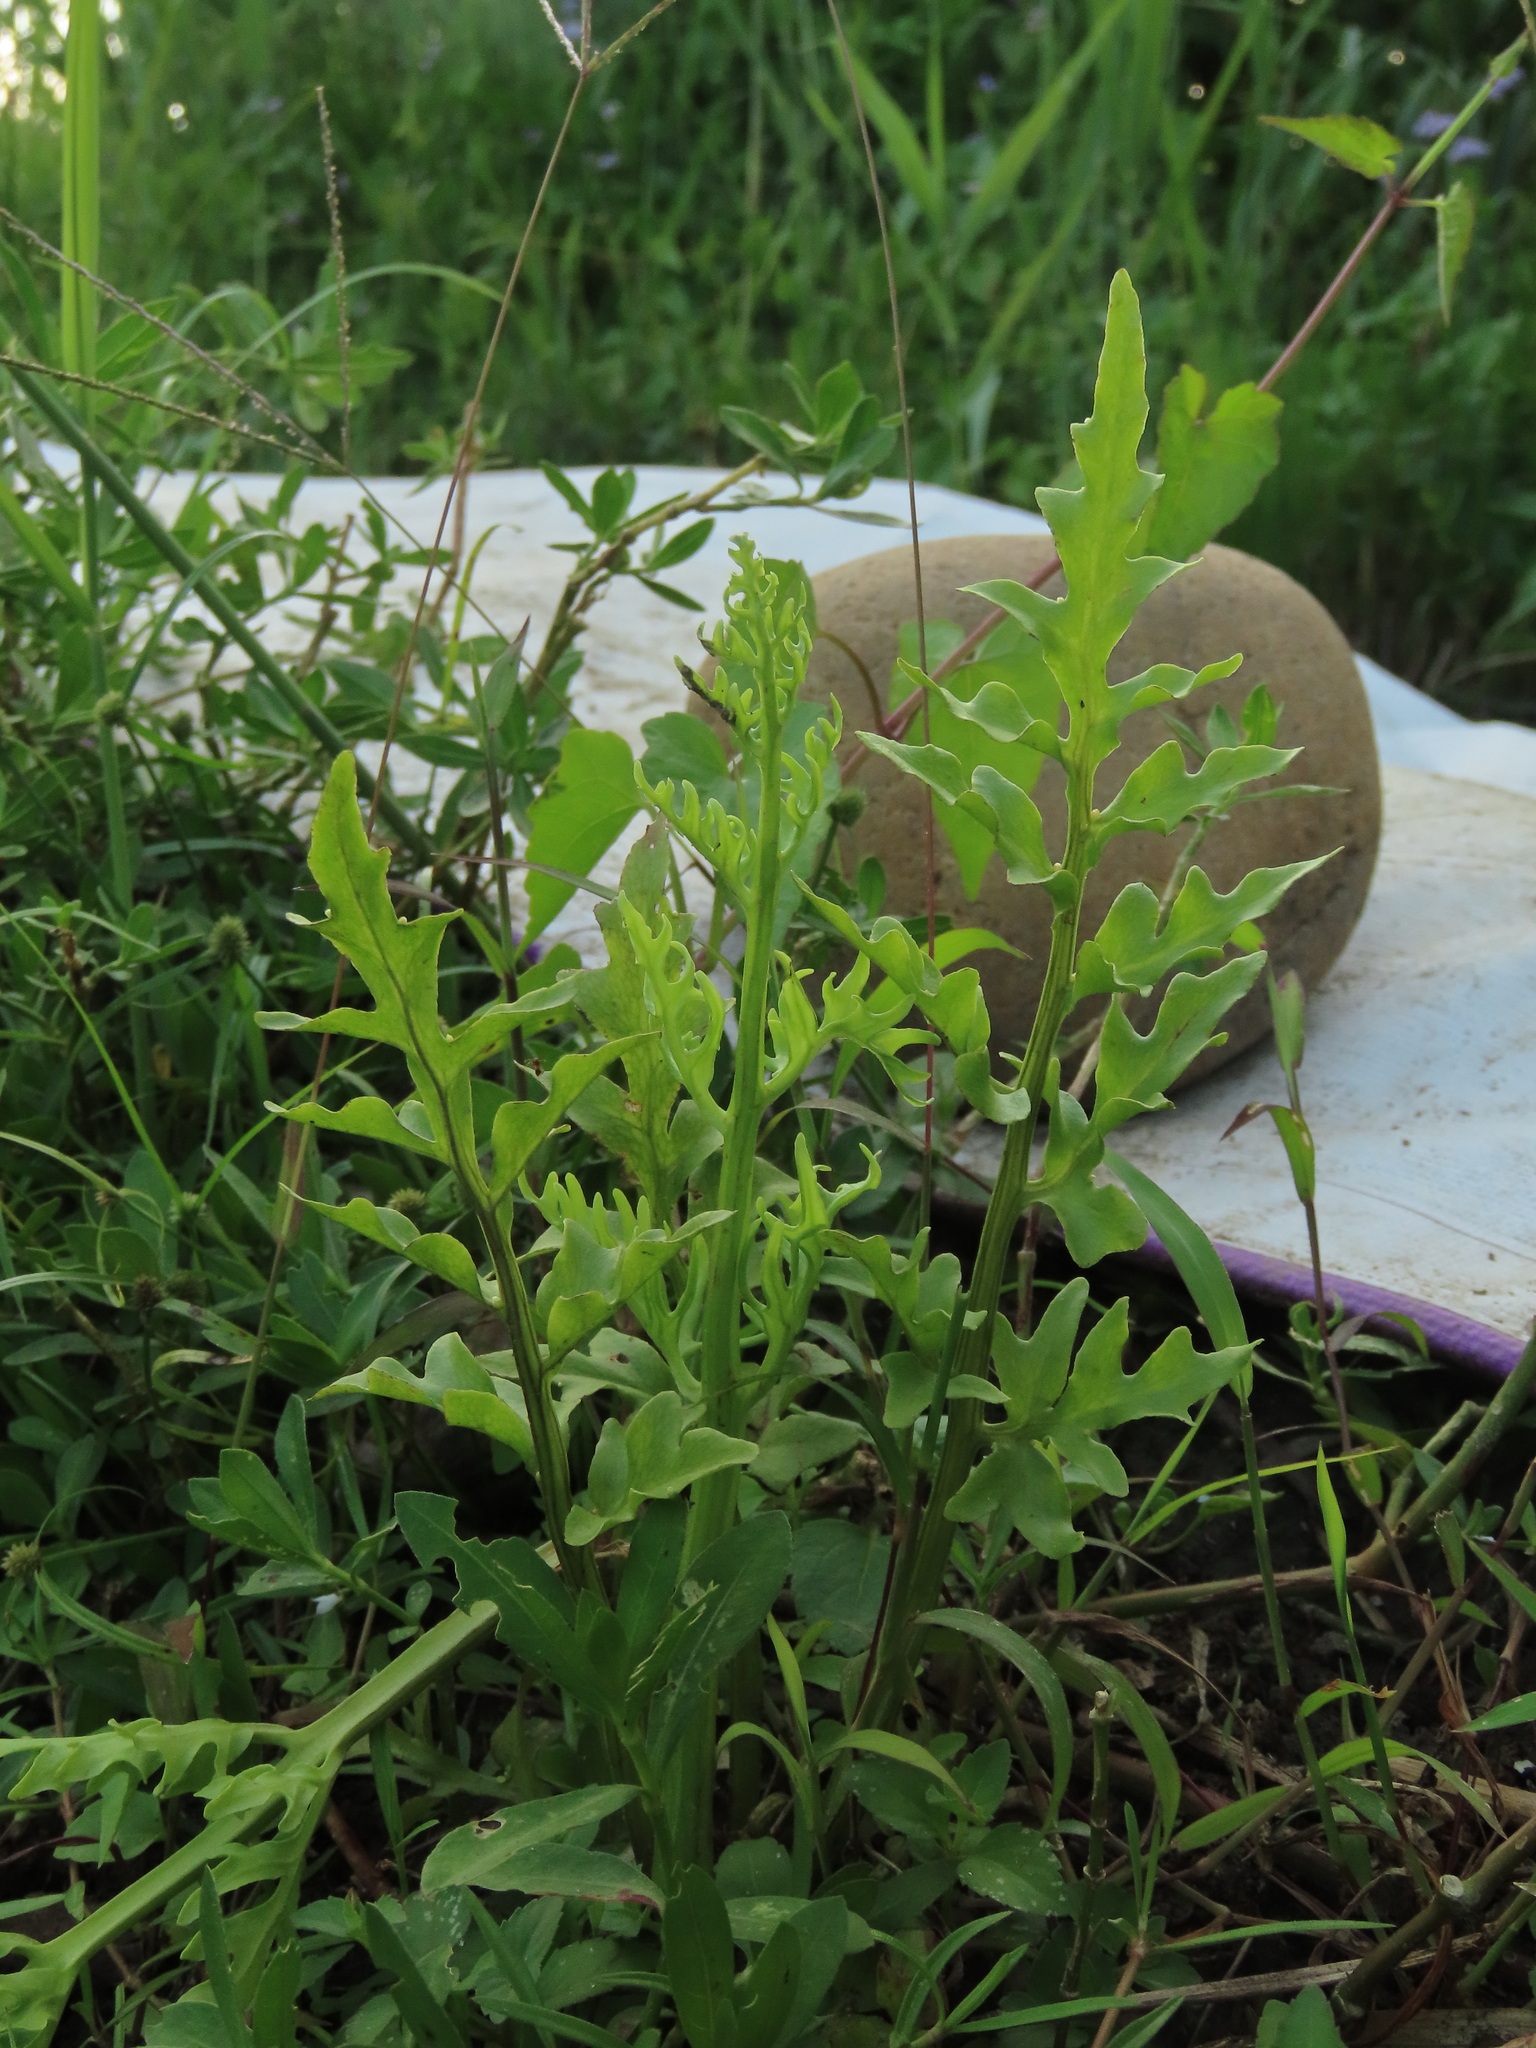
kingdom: Plantae
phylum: Tracheophyta
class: Polypodiopsida
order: Polypodiales
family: Pteridaceae
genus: Ceratopteris
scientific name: Ceratopteris thalictroides
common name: Water fern
